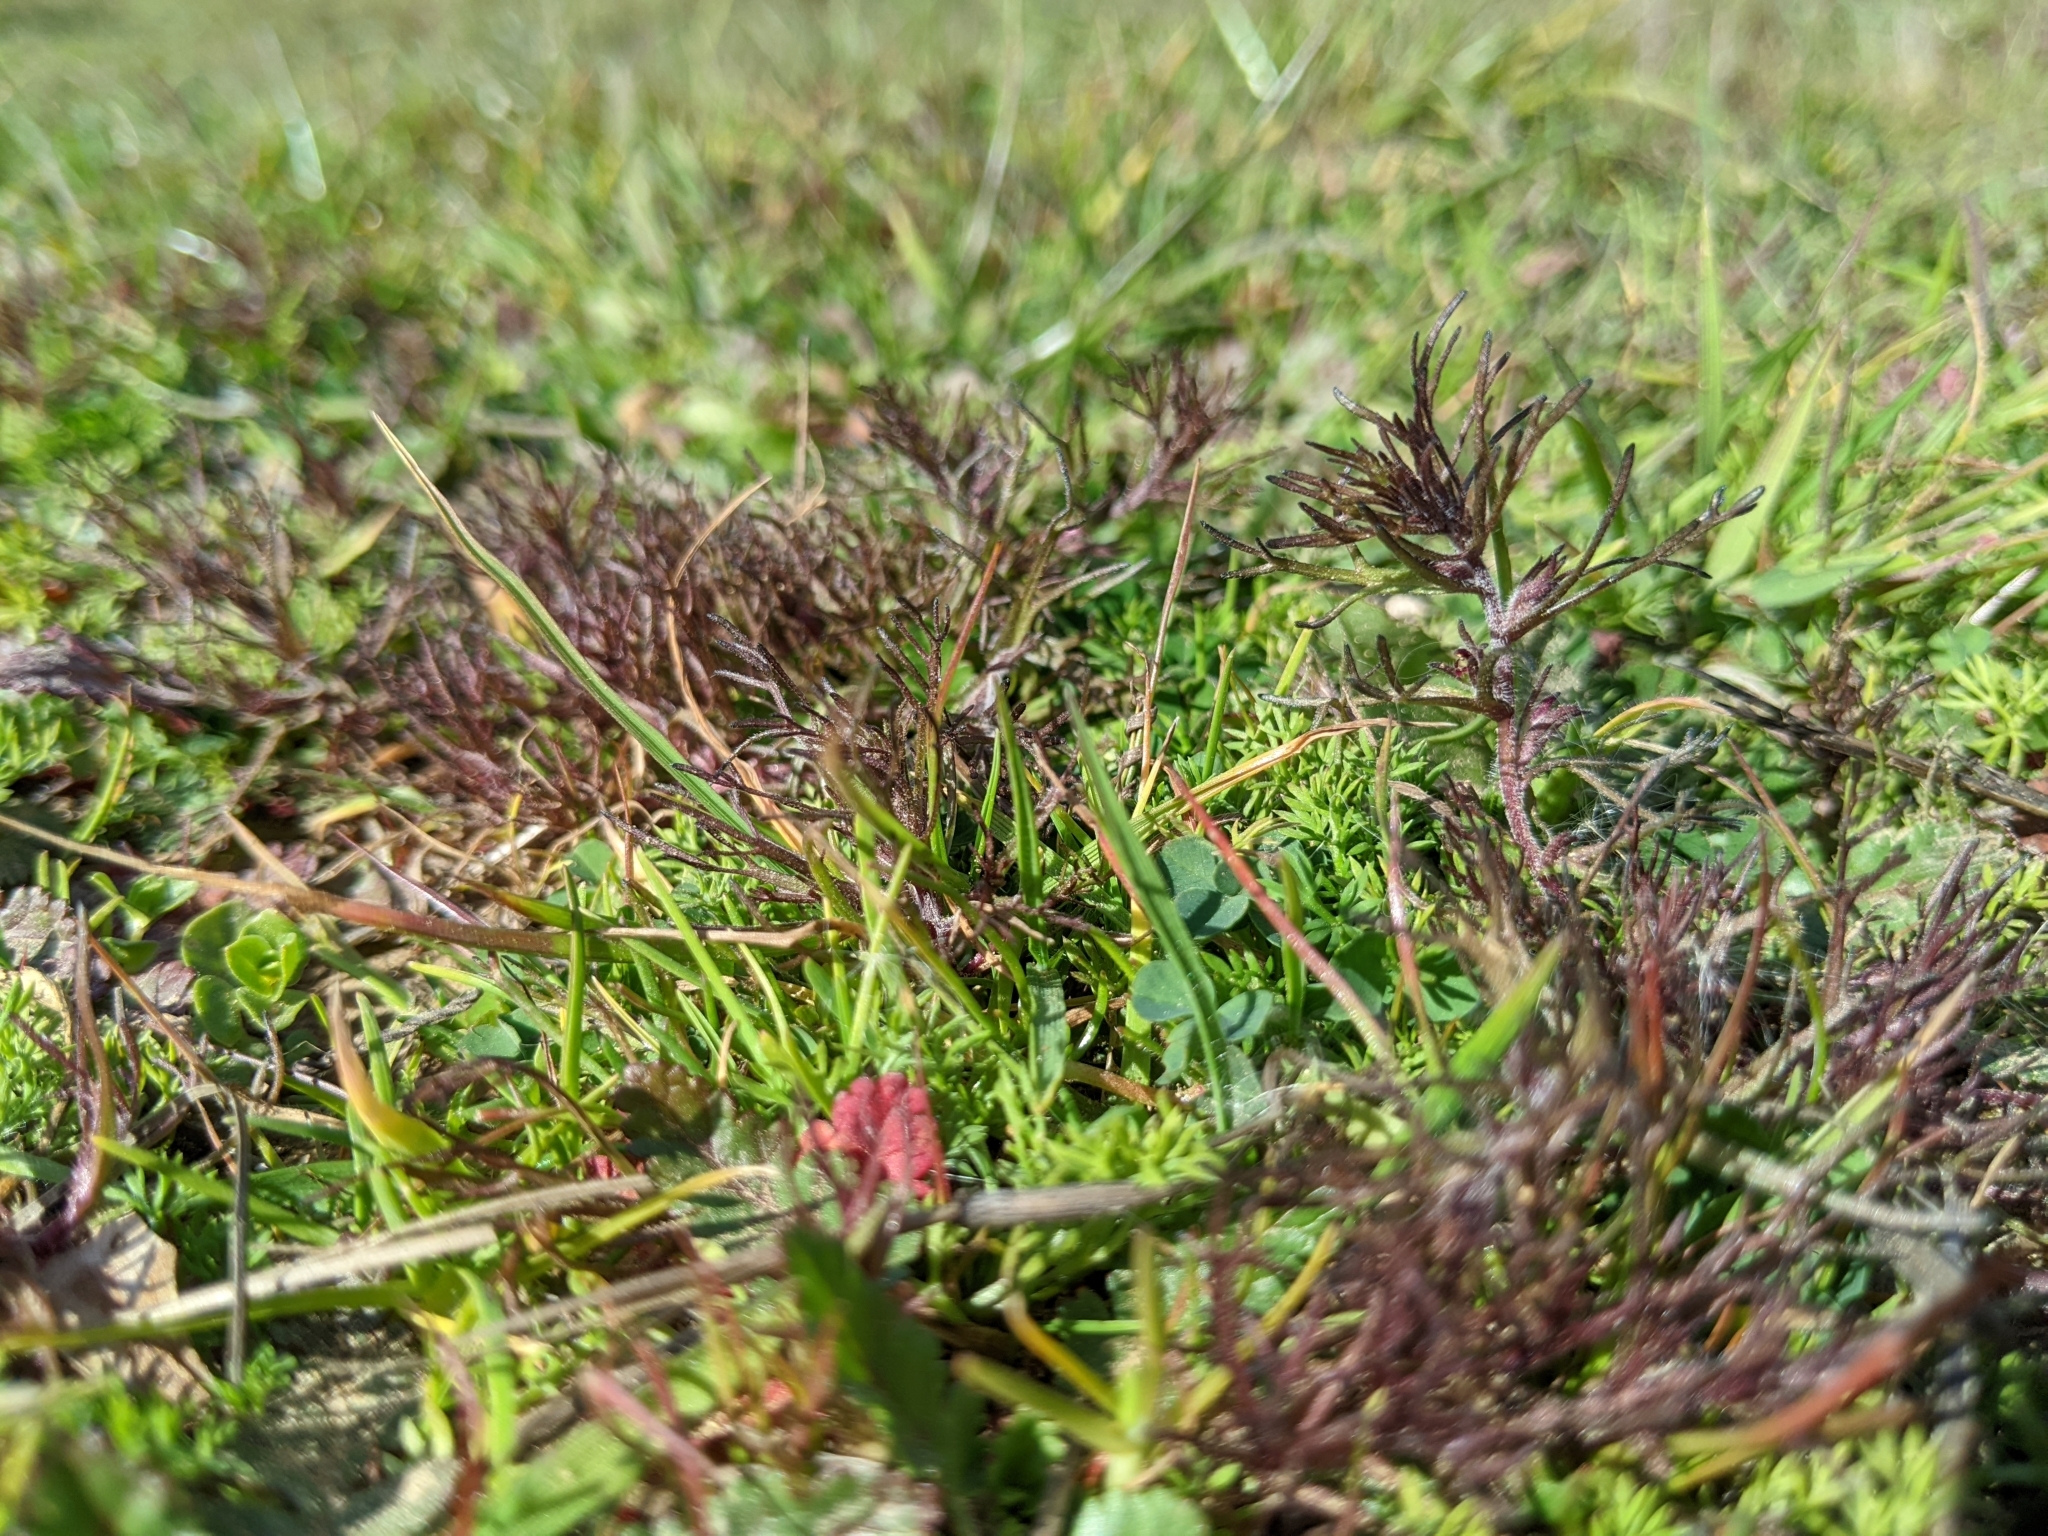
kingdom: Plantae
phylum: Tracheophyta
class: Magnoliopsida
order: Lamiales
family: Orobanchaceae
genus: Triphysaria
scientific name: Triphysaria pusilla
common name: Dwarf false owl-clover
